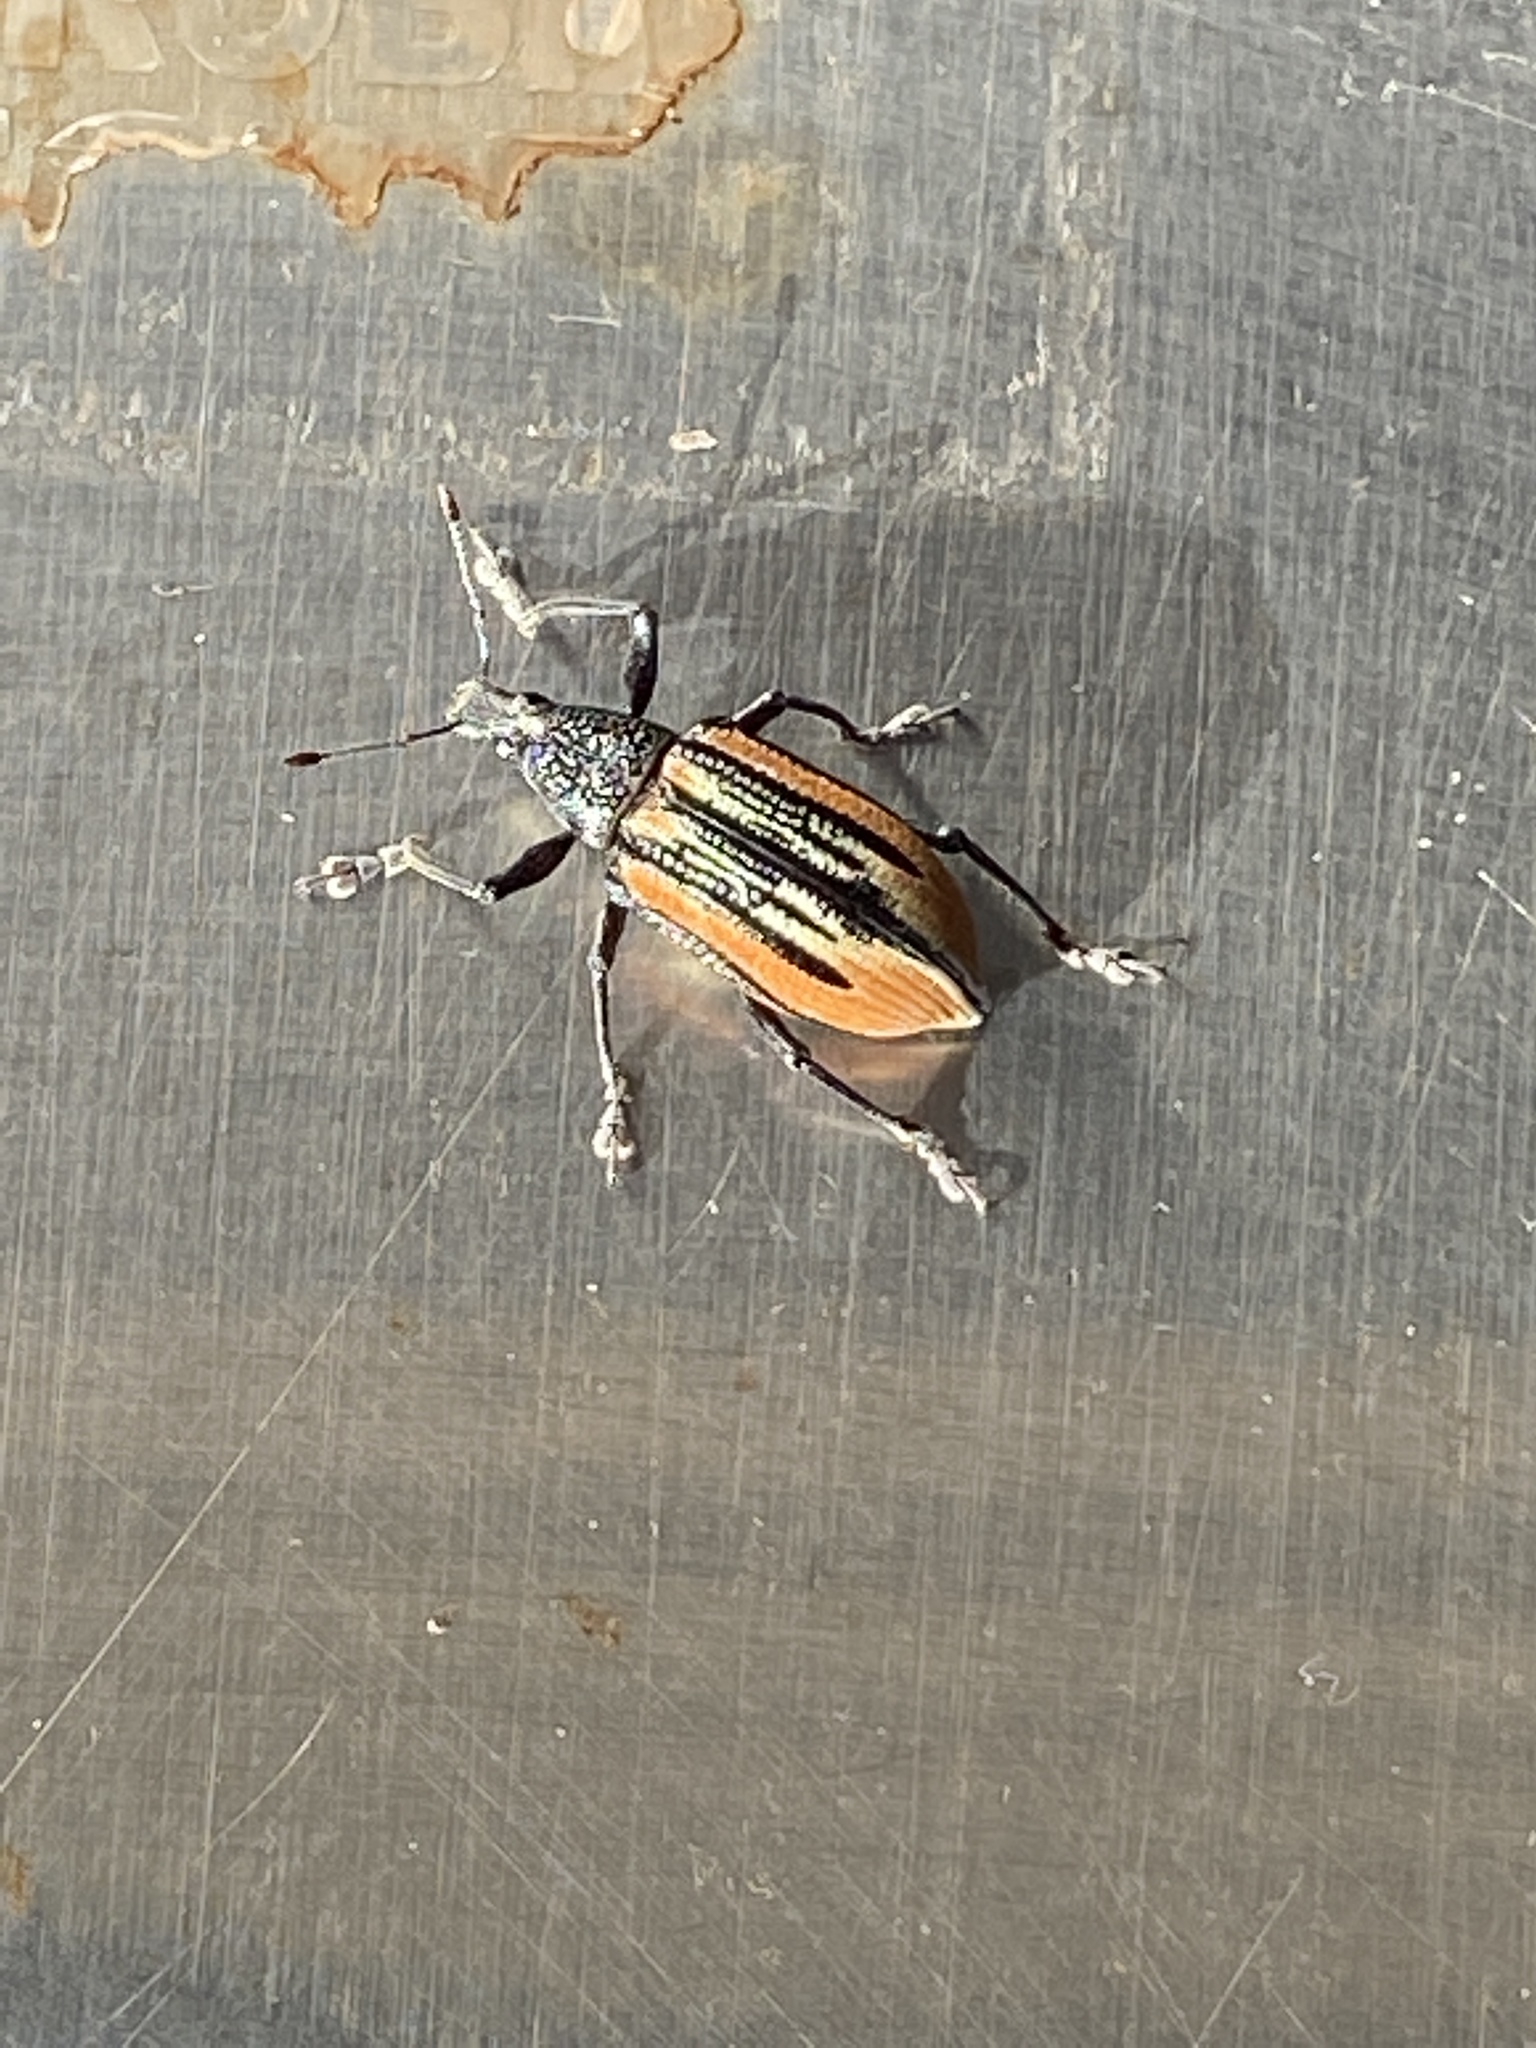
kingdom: Animalia
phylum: Arthropoda
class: Insecta
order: Coleoptera
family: Curculionidae
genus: Diaprepes
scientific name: Diaprepes abbreviatus
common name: Root weevil
